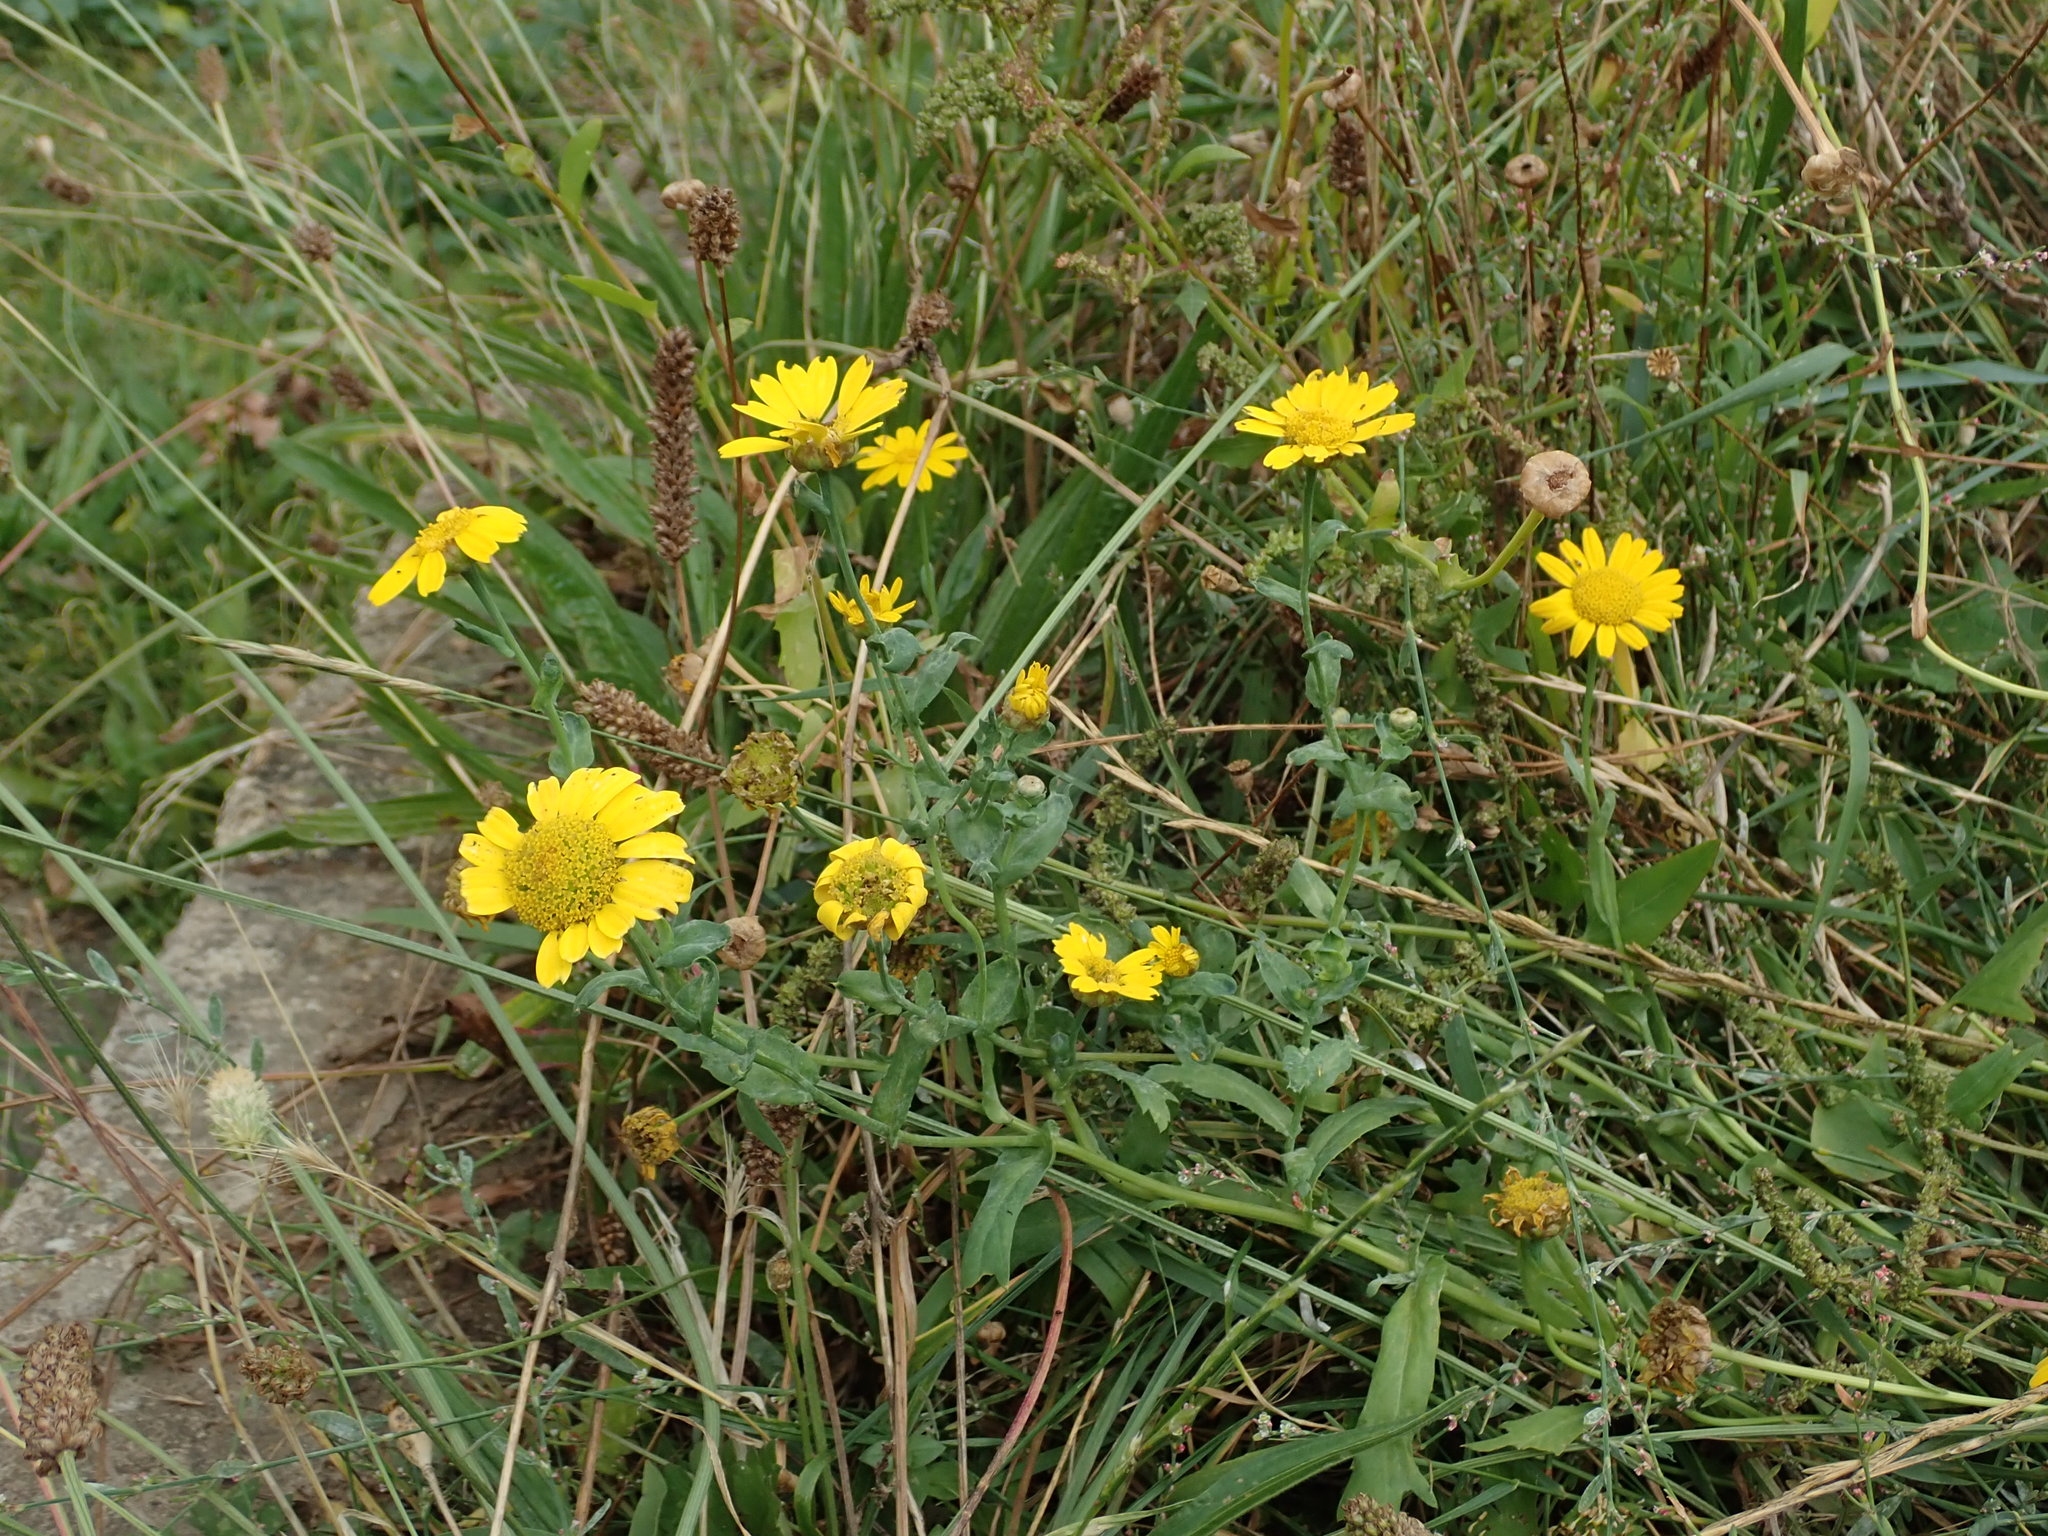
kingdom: Plantae
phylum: Tracheophyta
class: Magnoliopsida
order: Asterales
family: Asteraceae
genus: Glebionis
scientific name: Glebionis segetum
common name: Corndaisy
